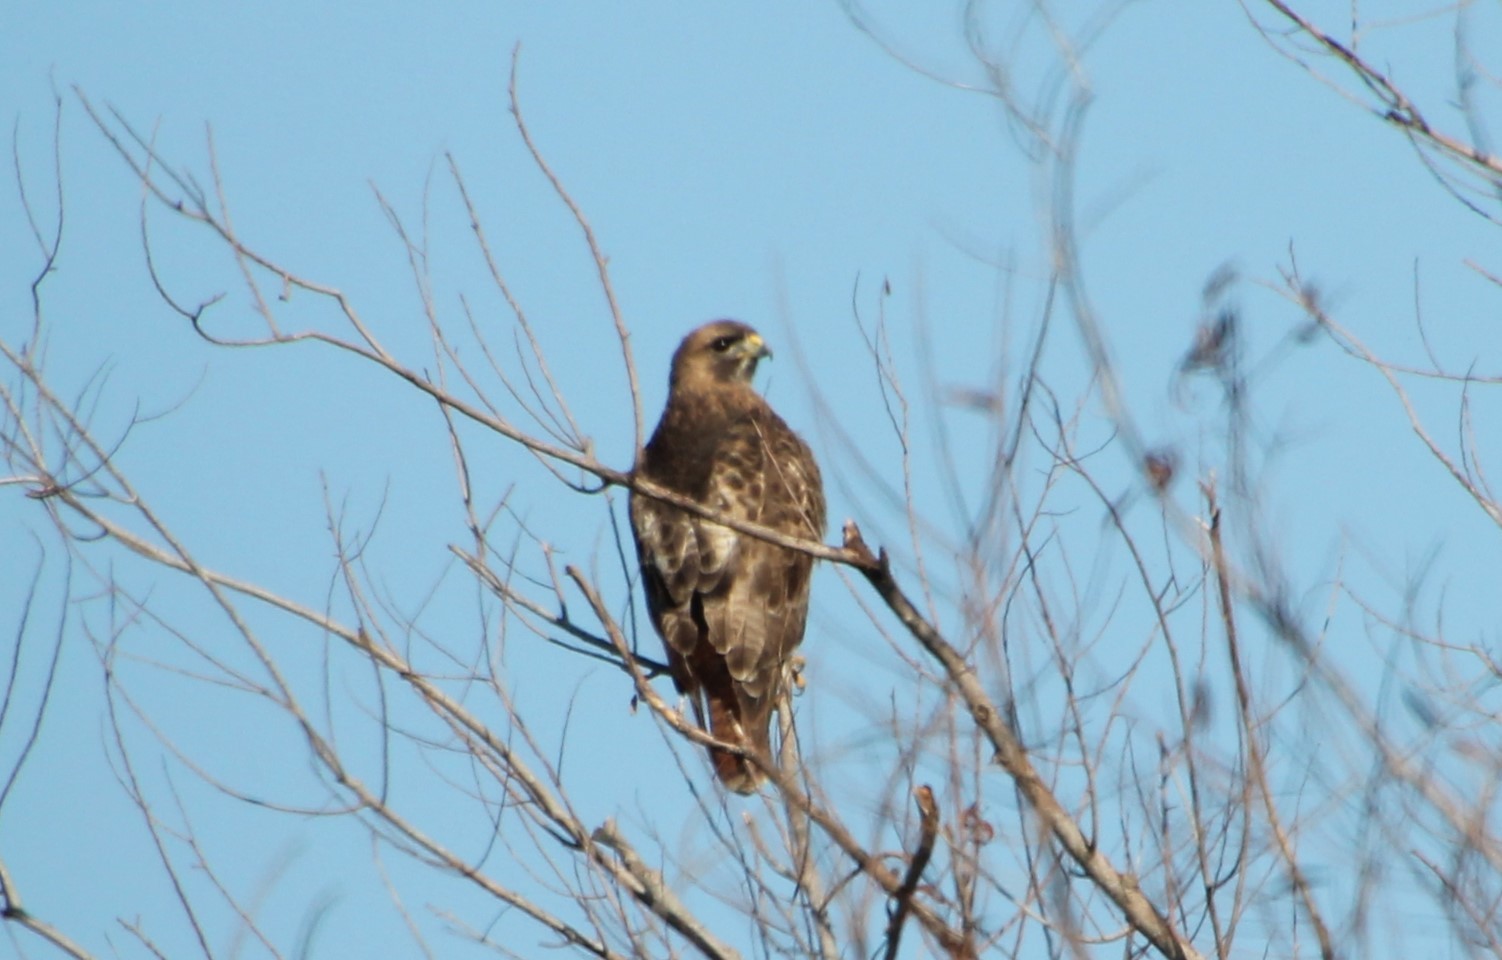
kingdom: Animalia
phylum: Chordata
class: Aves
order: Accipitriformes
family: Accipitridae
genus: Buteo
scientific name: Buteo jamaicensis
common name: Red-tailed hawk
